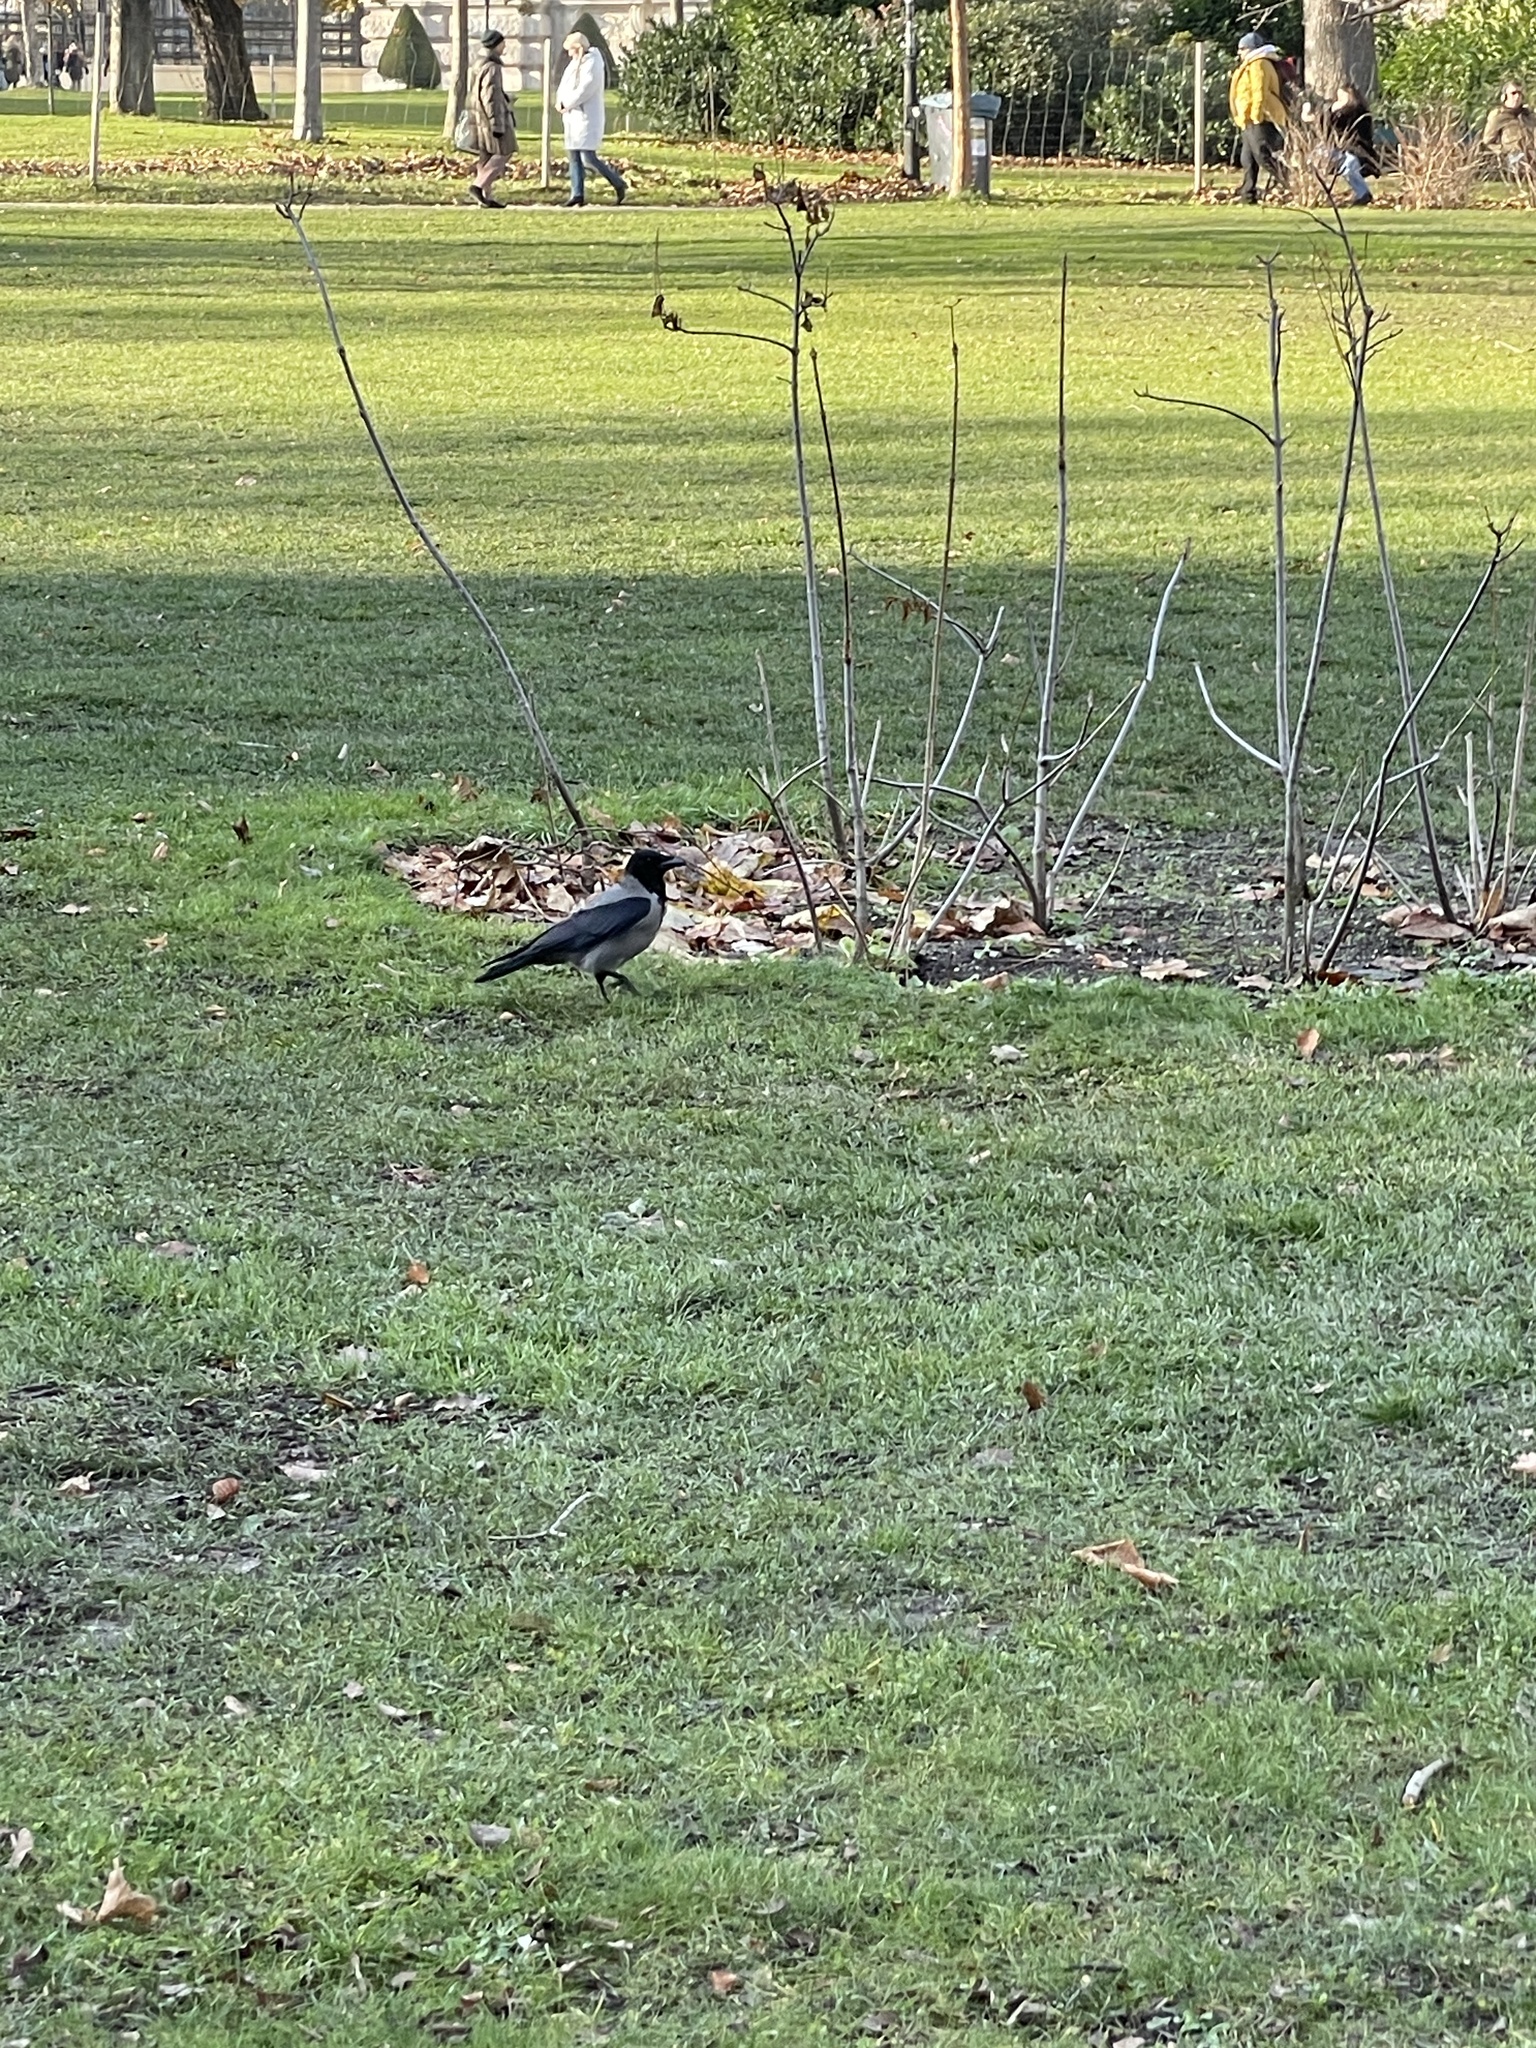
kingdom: Animalia
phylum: Chordata
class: Aves
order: Passeriformes
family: Corvidae
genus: Corvus
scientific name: Corvus cornix
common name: Hooded crow
